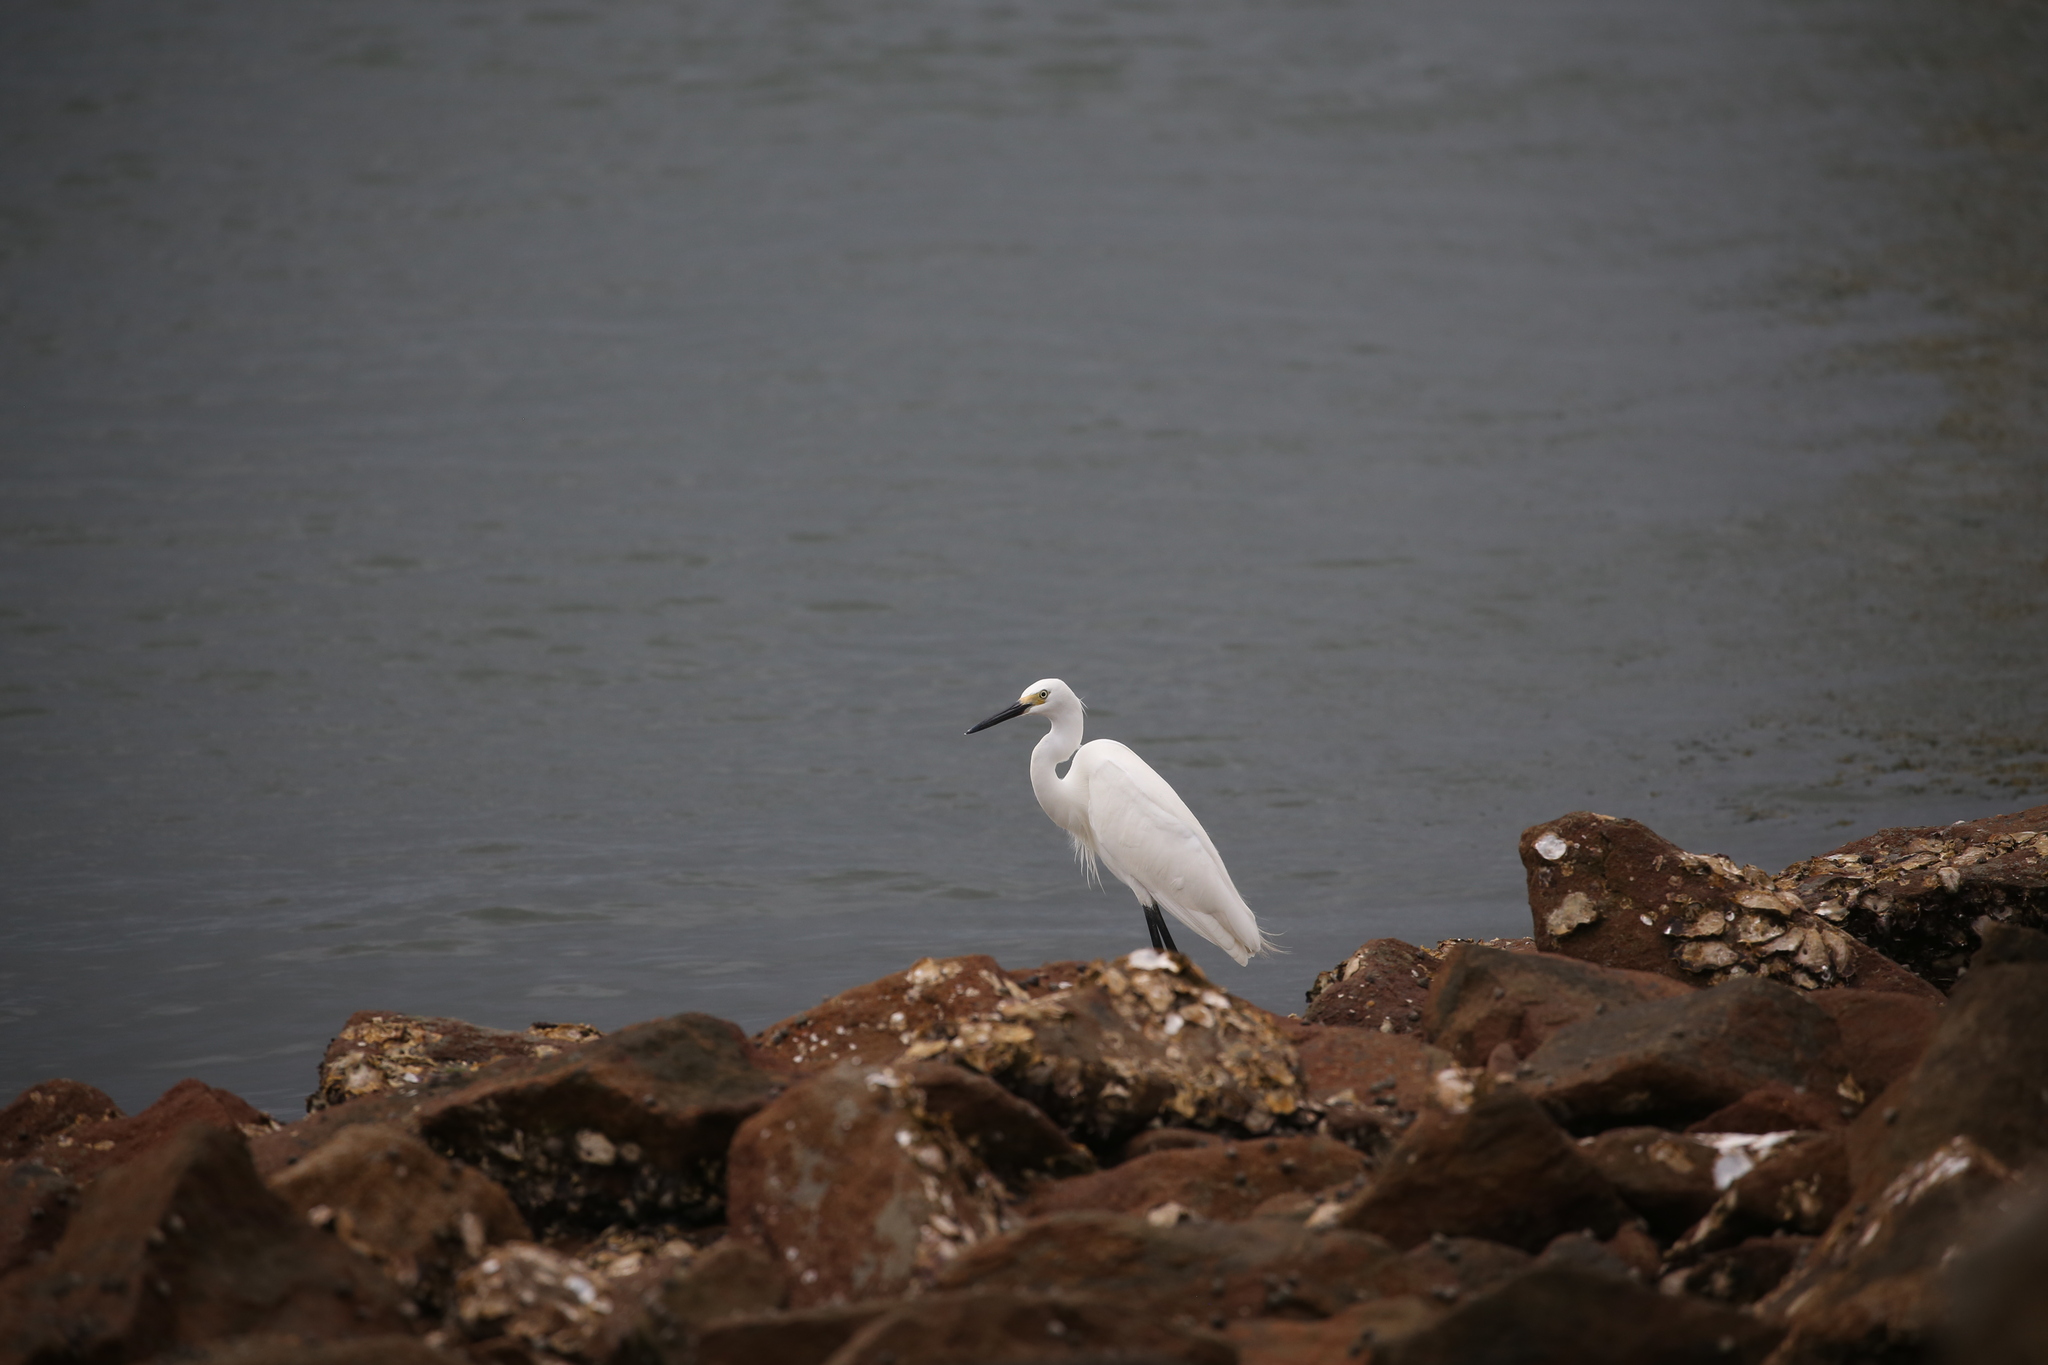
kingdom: Animalia
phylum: Chordata
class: Aves
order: Pelecaniformes
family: Ardeidae
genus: Egretta
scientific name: Egretta garzetta
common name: Little egret
